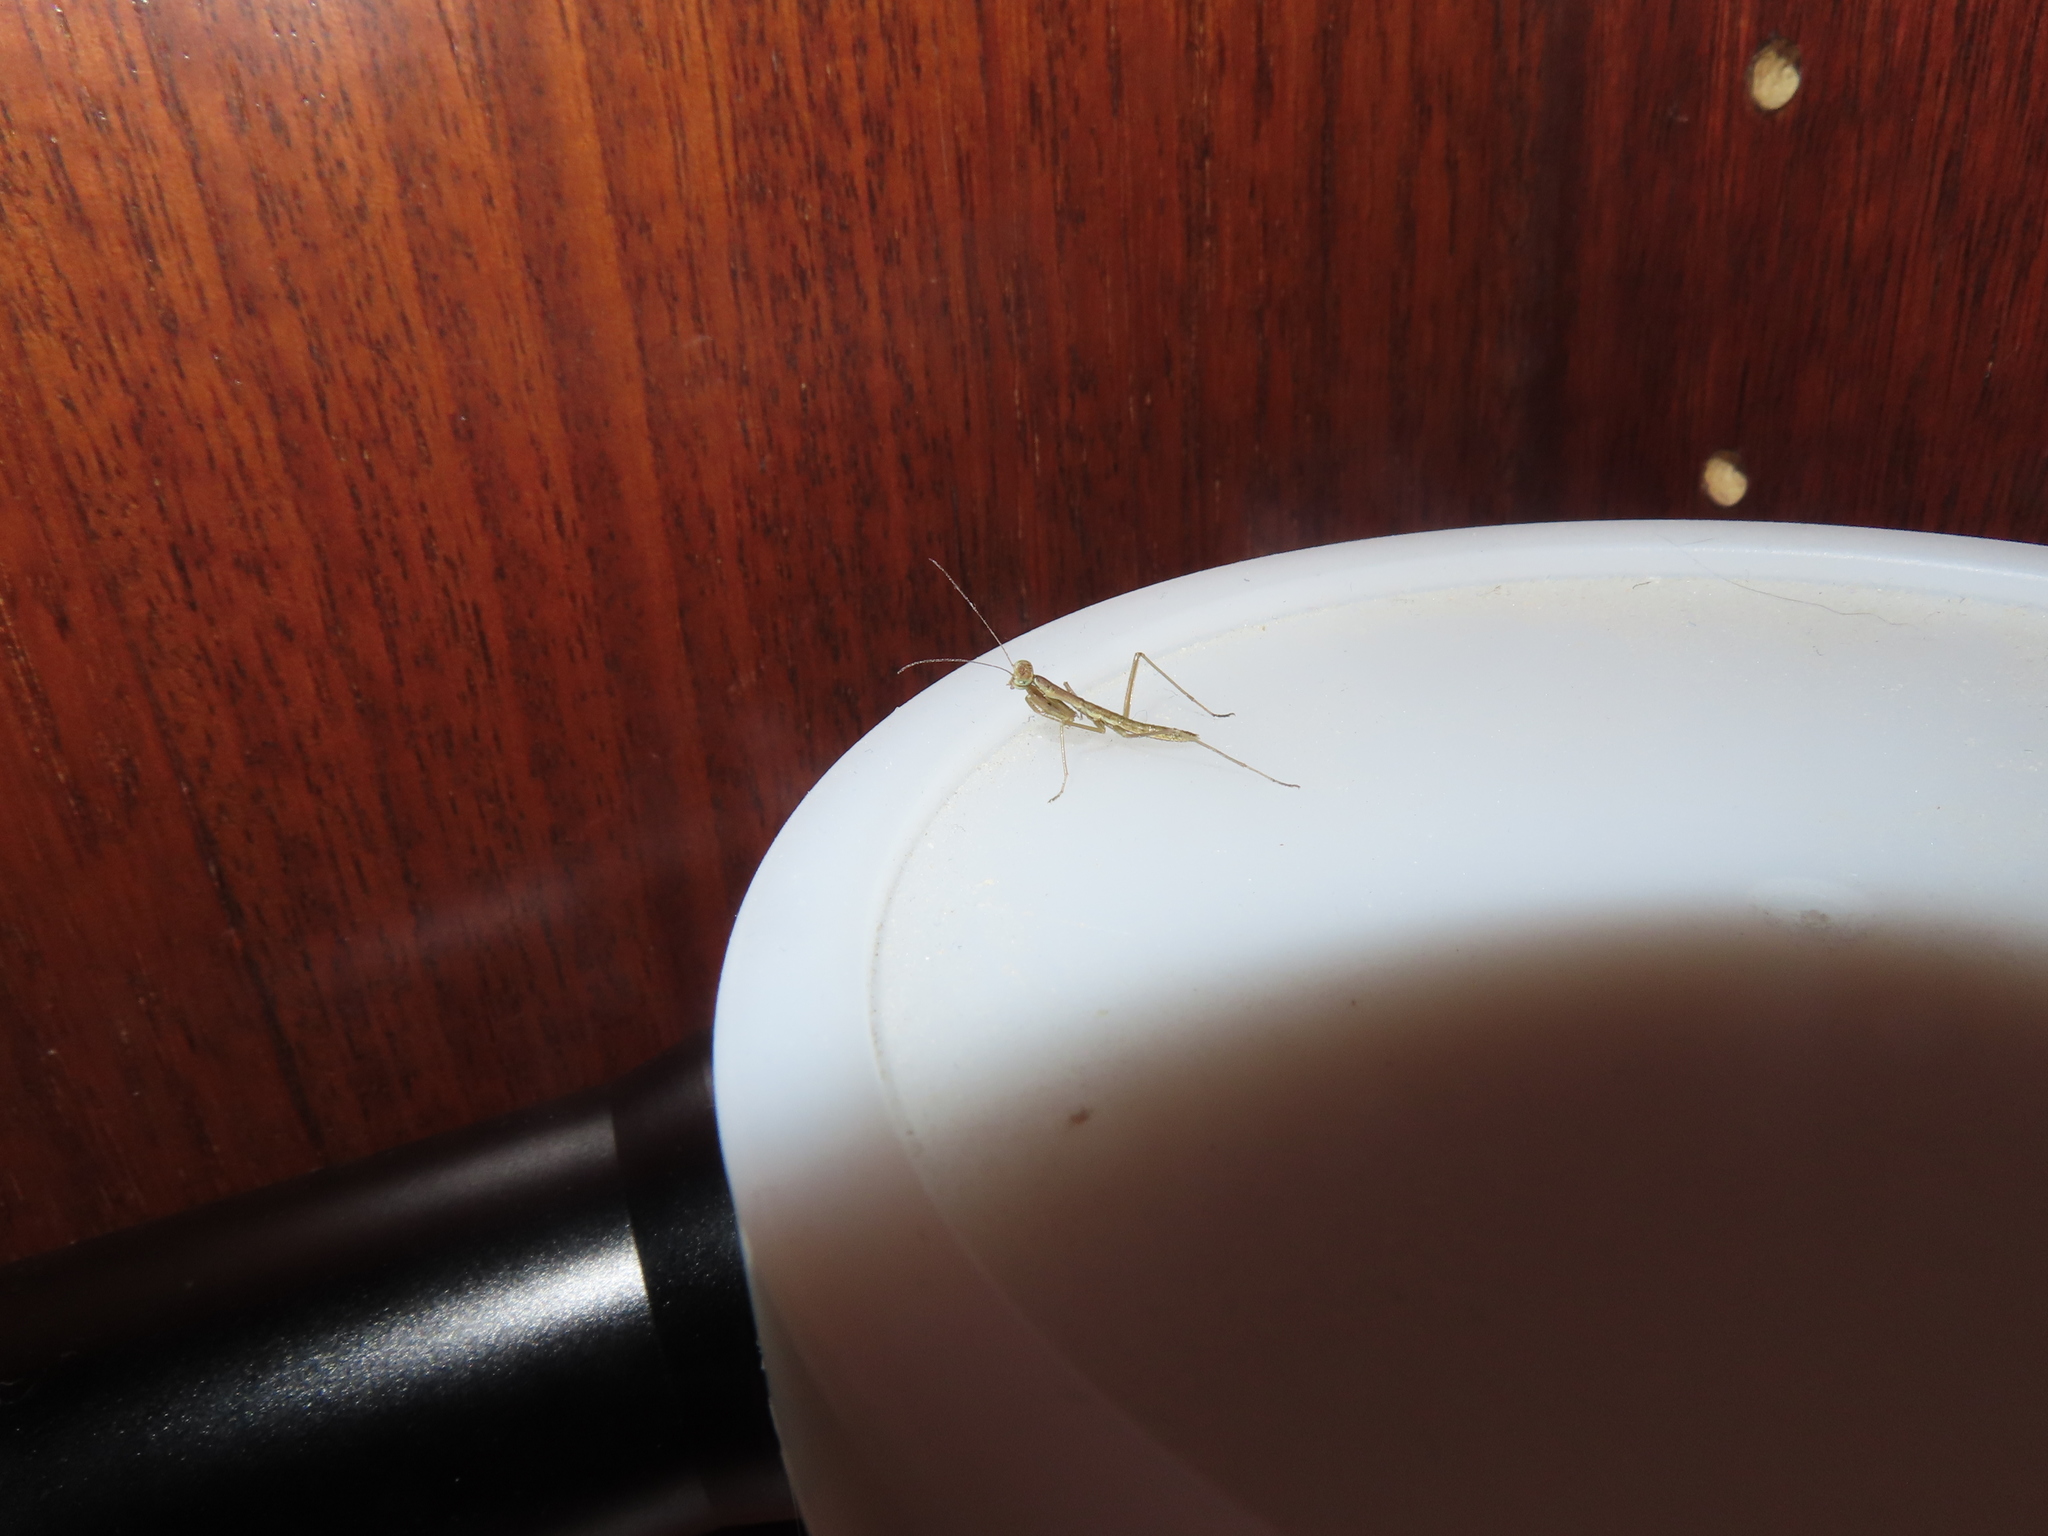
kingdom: Animalia
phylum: Arthropoda
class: Insecta
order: Mantodea
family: Mantidae
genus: Tenodera
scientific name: Tenodera sinensis
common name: Chinese mantis
